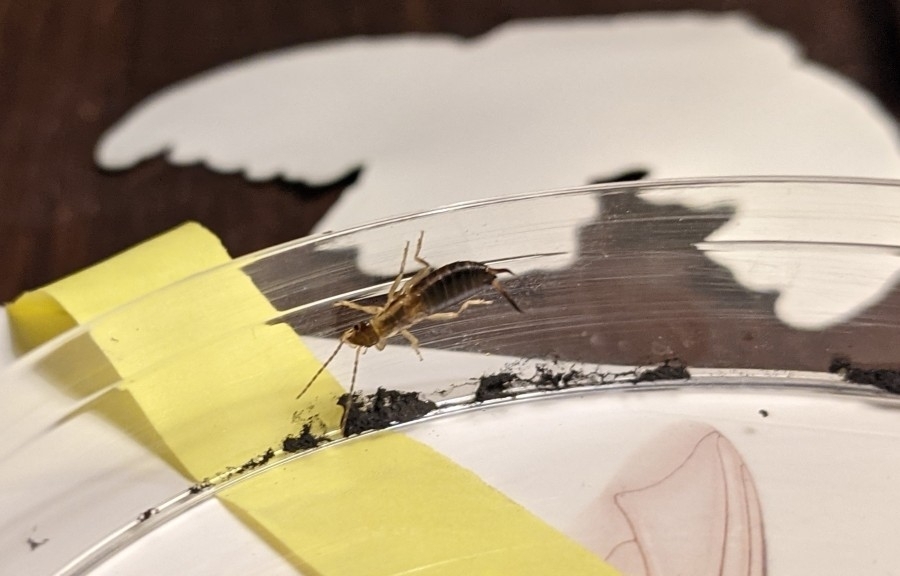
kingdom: Animalia
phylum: Arthropoda
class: Insecta
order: Dermaptera
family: Forficulidae
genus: Forficula
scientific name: Forficula
